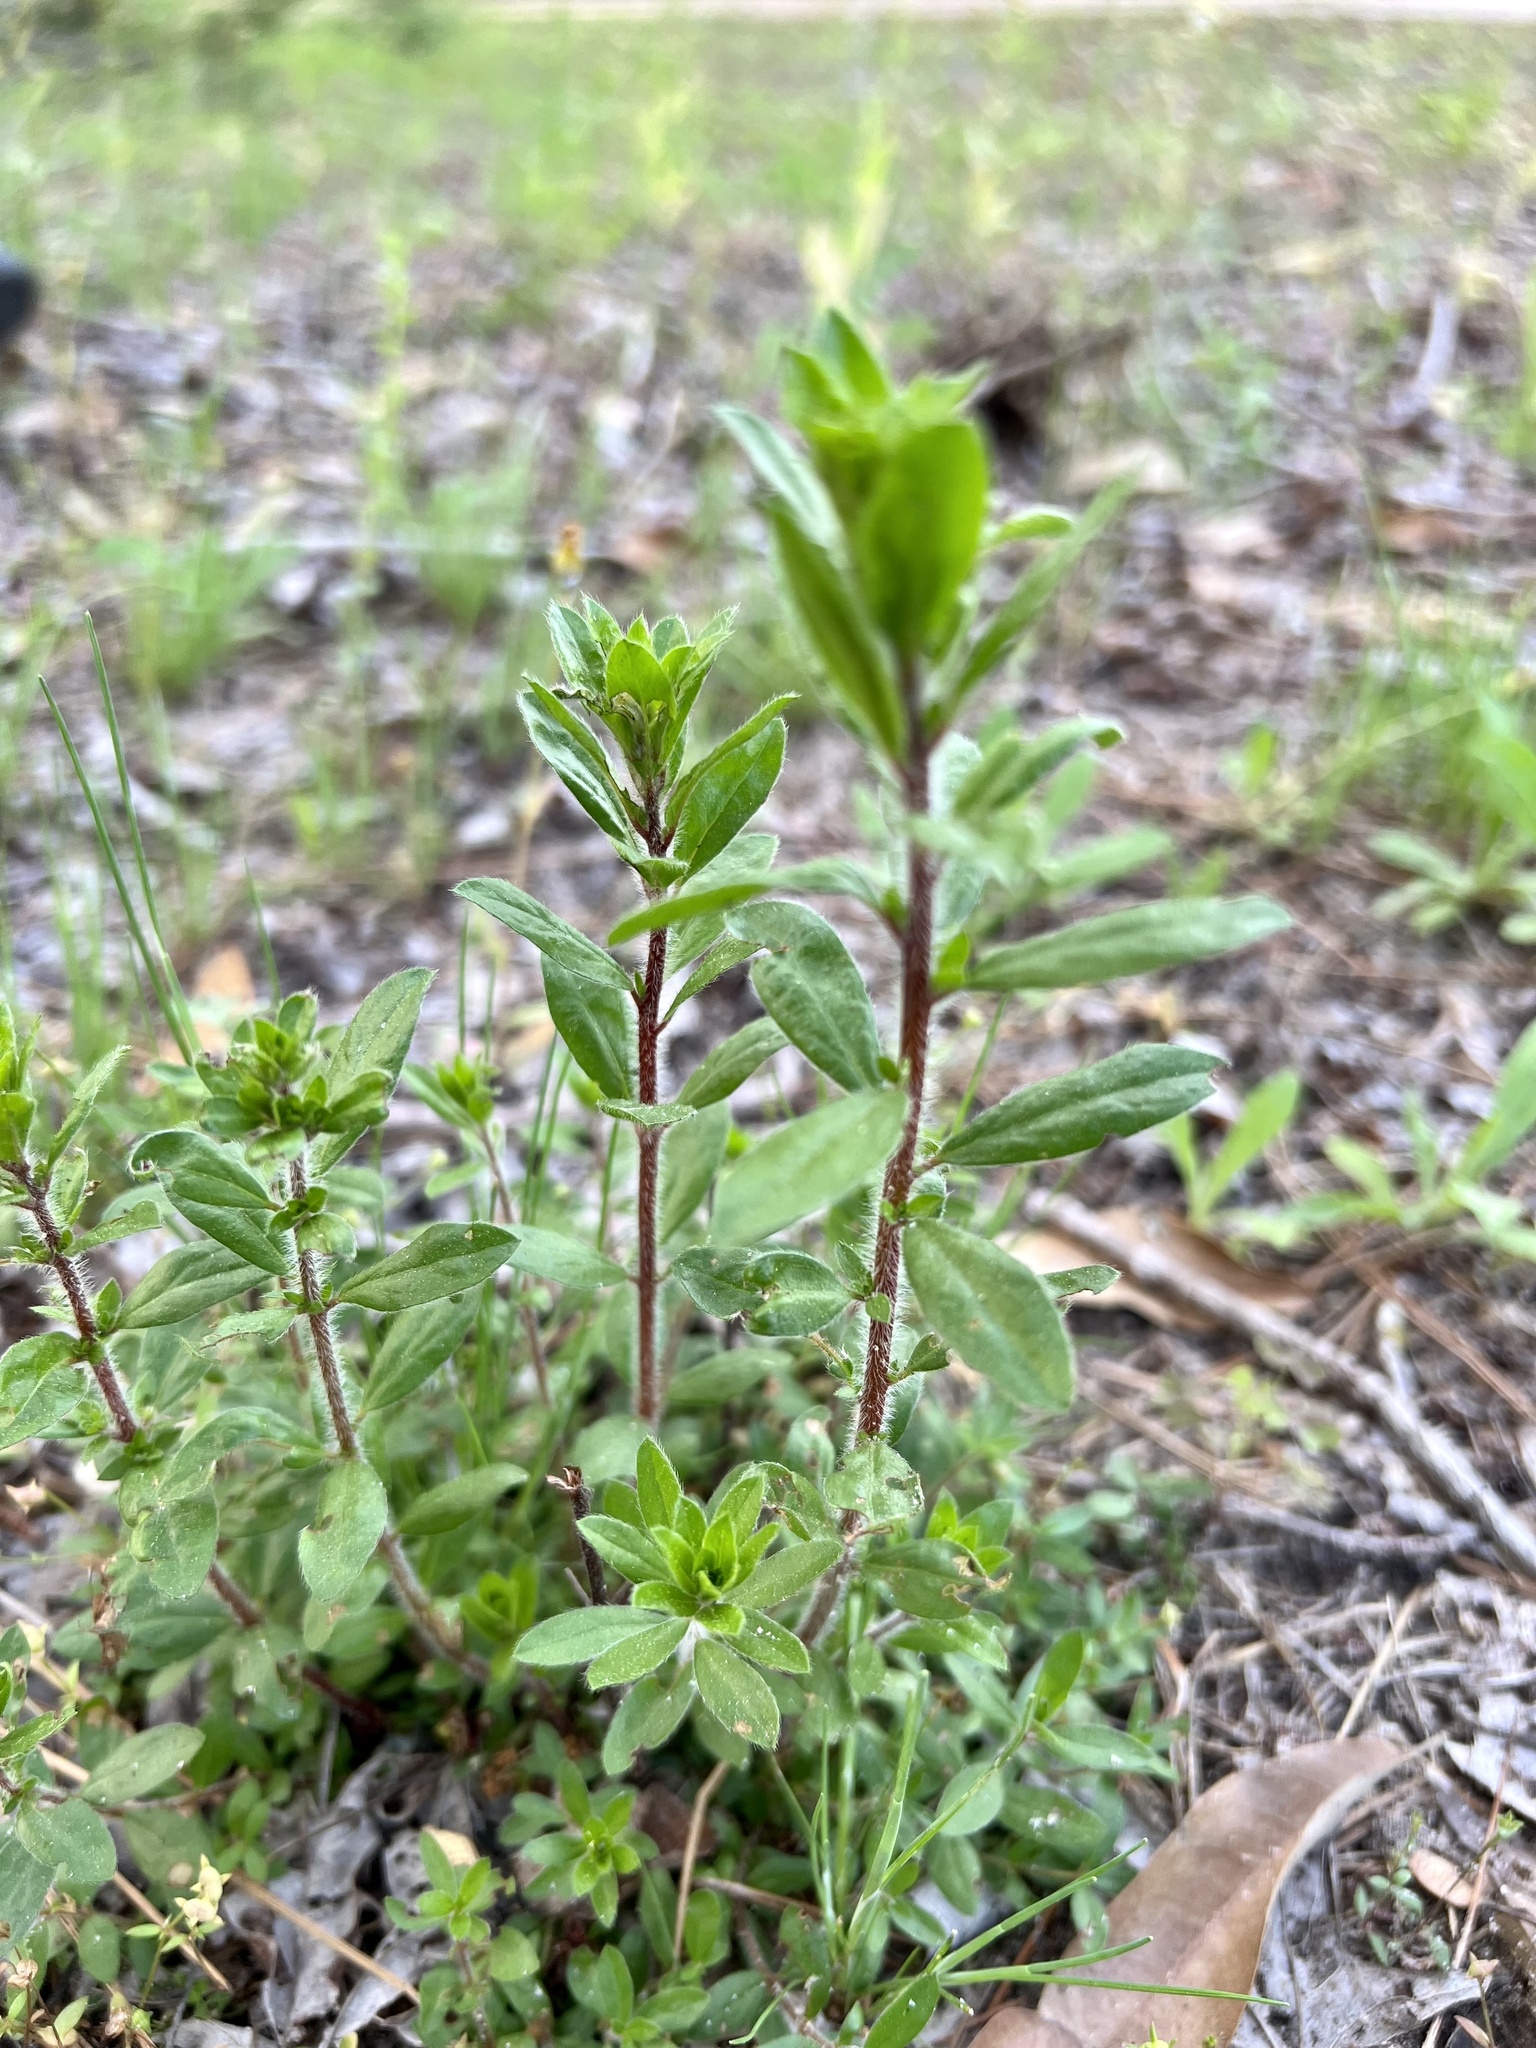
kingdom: Plantae
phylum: Tracheophyta
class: Magnoliopsida
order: Malvales
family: Cistaceae
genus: Lechea
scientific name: Lechea mucronata
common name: Hairy pinweed
